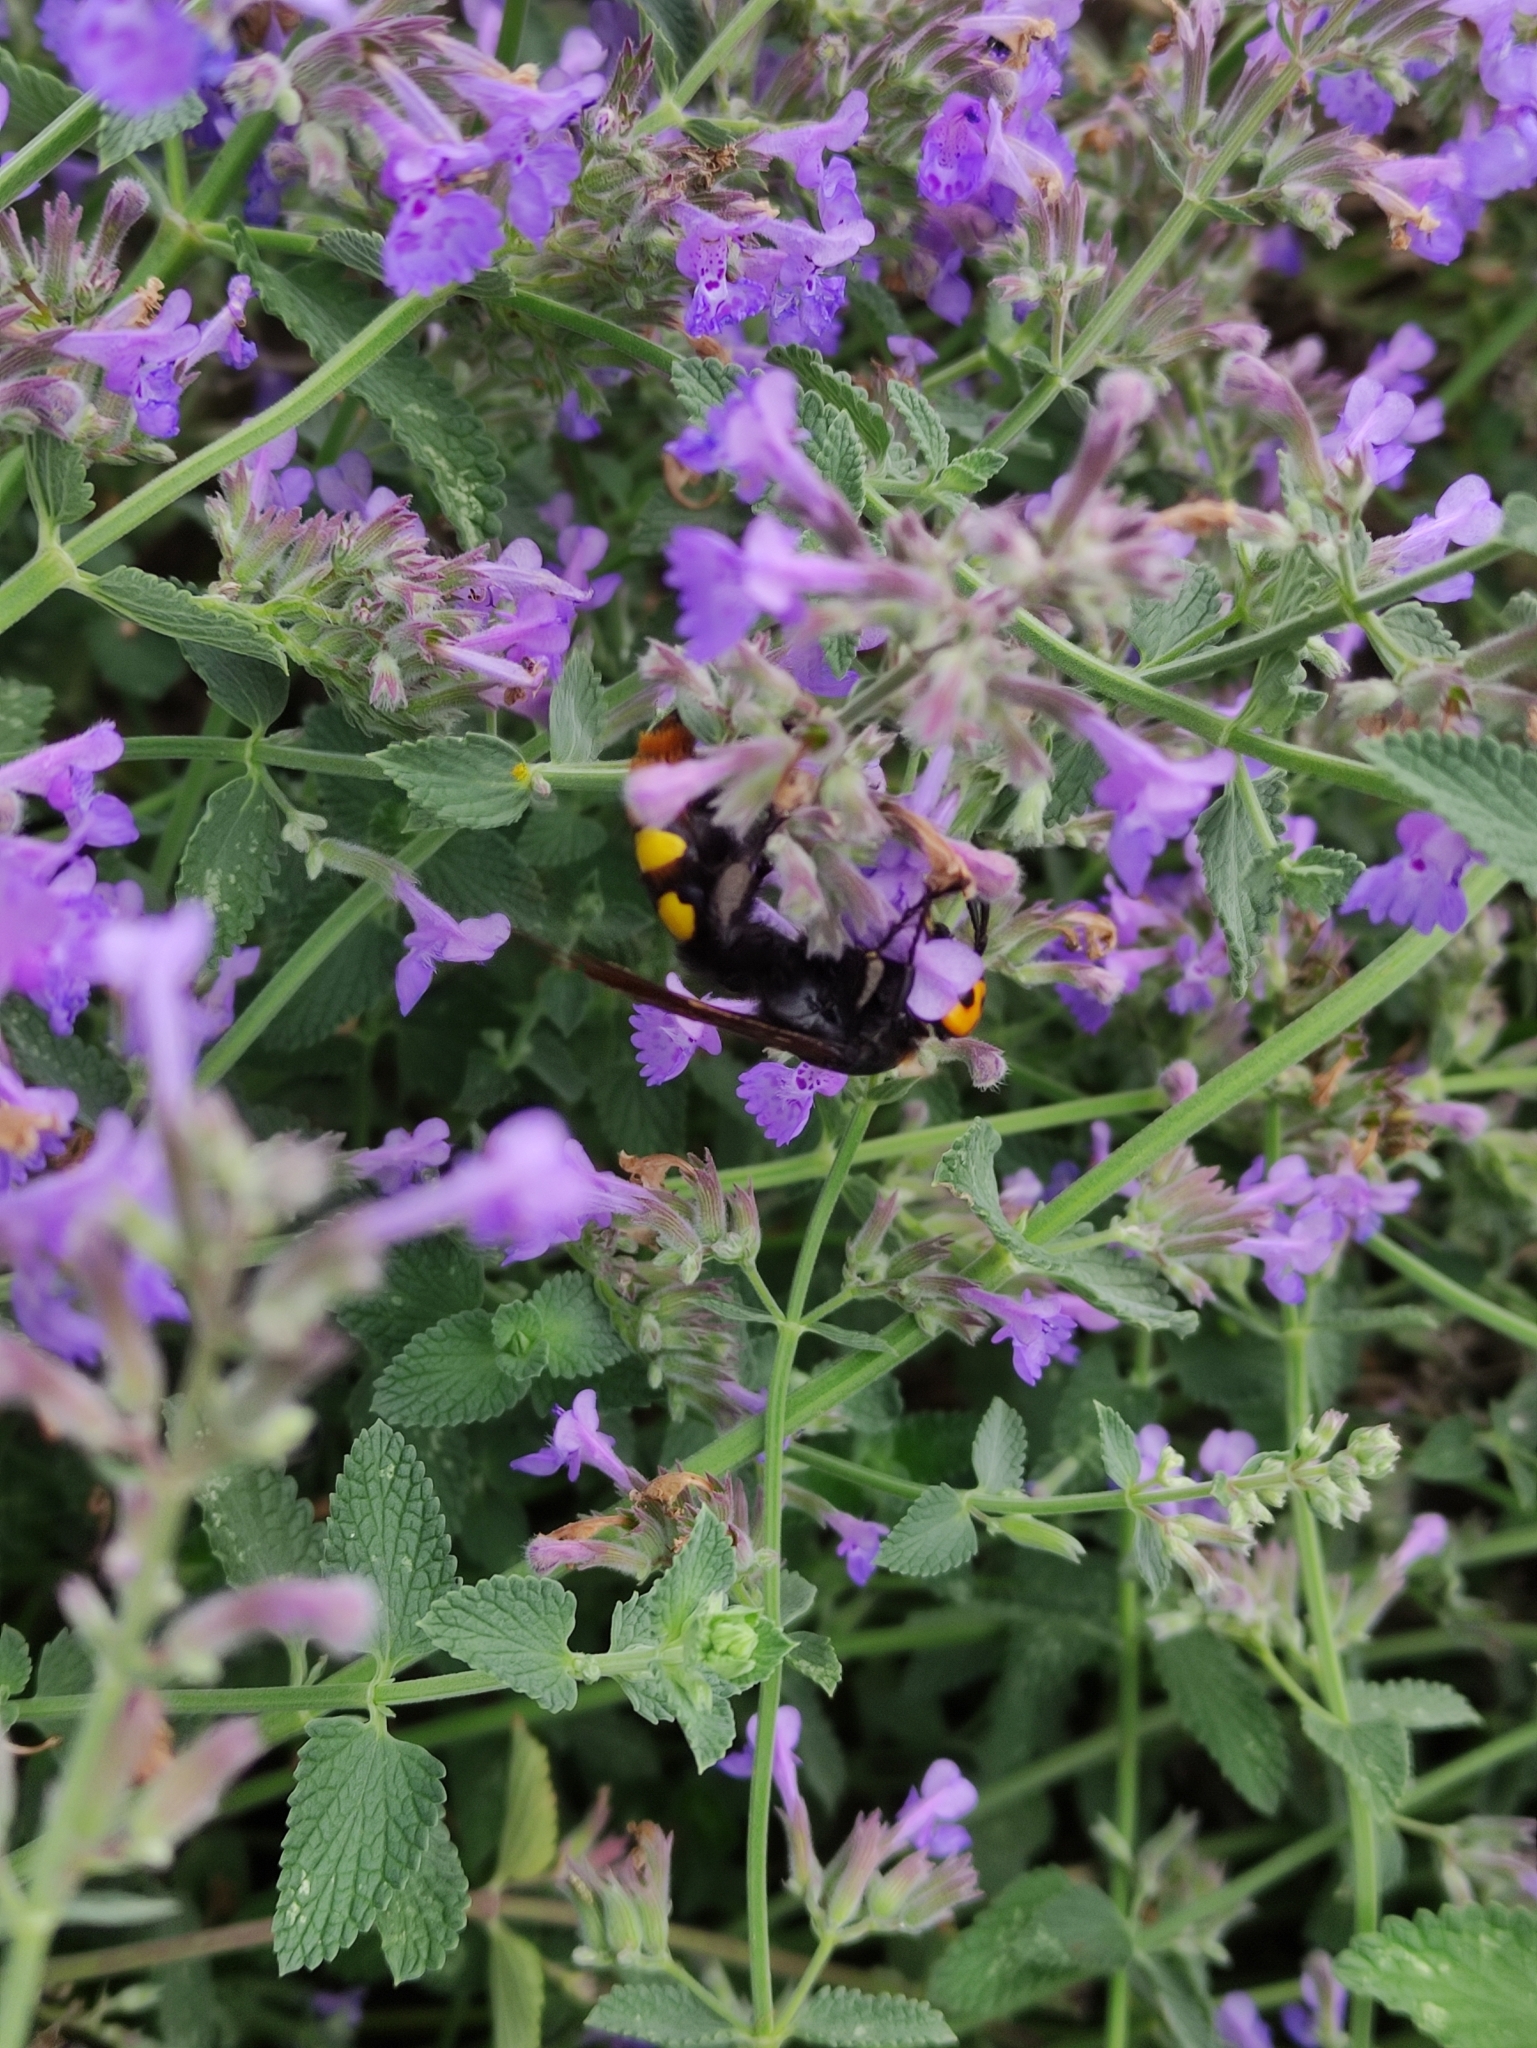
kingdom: Animalia
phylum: Arthropoda
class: Insecta
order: Hymenoptera
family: Scoliidae
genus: Megascolia
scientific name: Megascolia maculata
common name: Mammoth wasp
